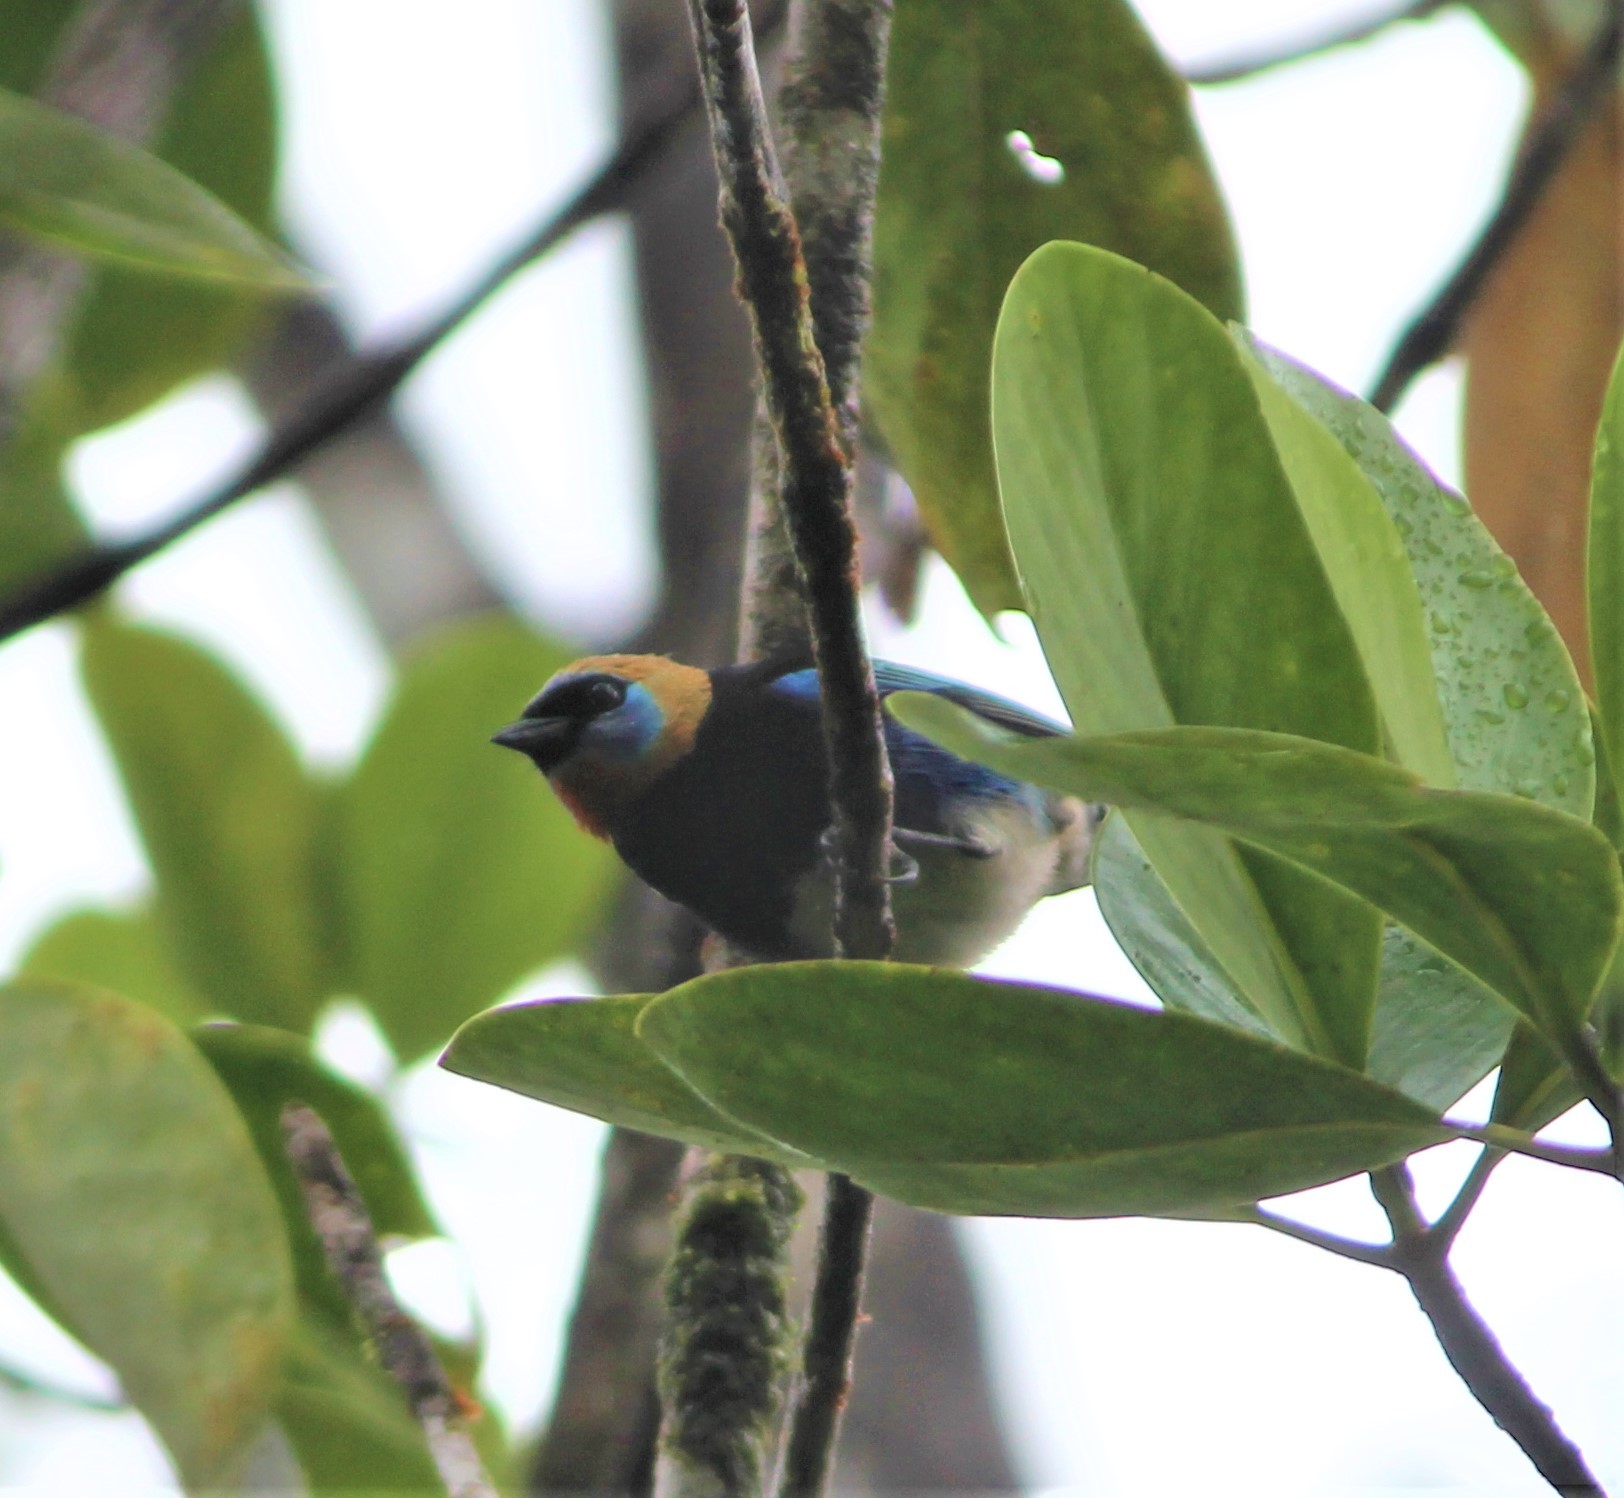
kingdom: Animalia
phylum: Chordata
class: Aves
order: Passeriformes
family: Thraupidae
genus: Stilpnia
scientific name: Stilpnia larvata
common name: Golden-hooded tanager
